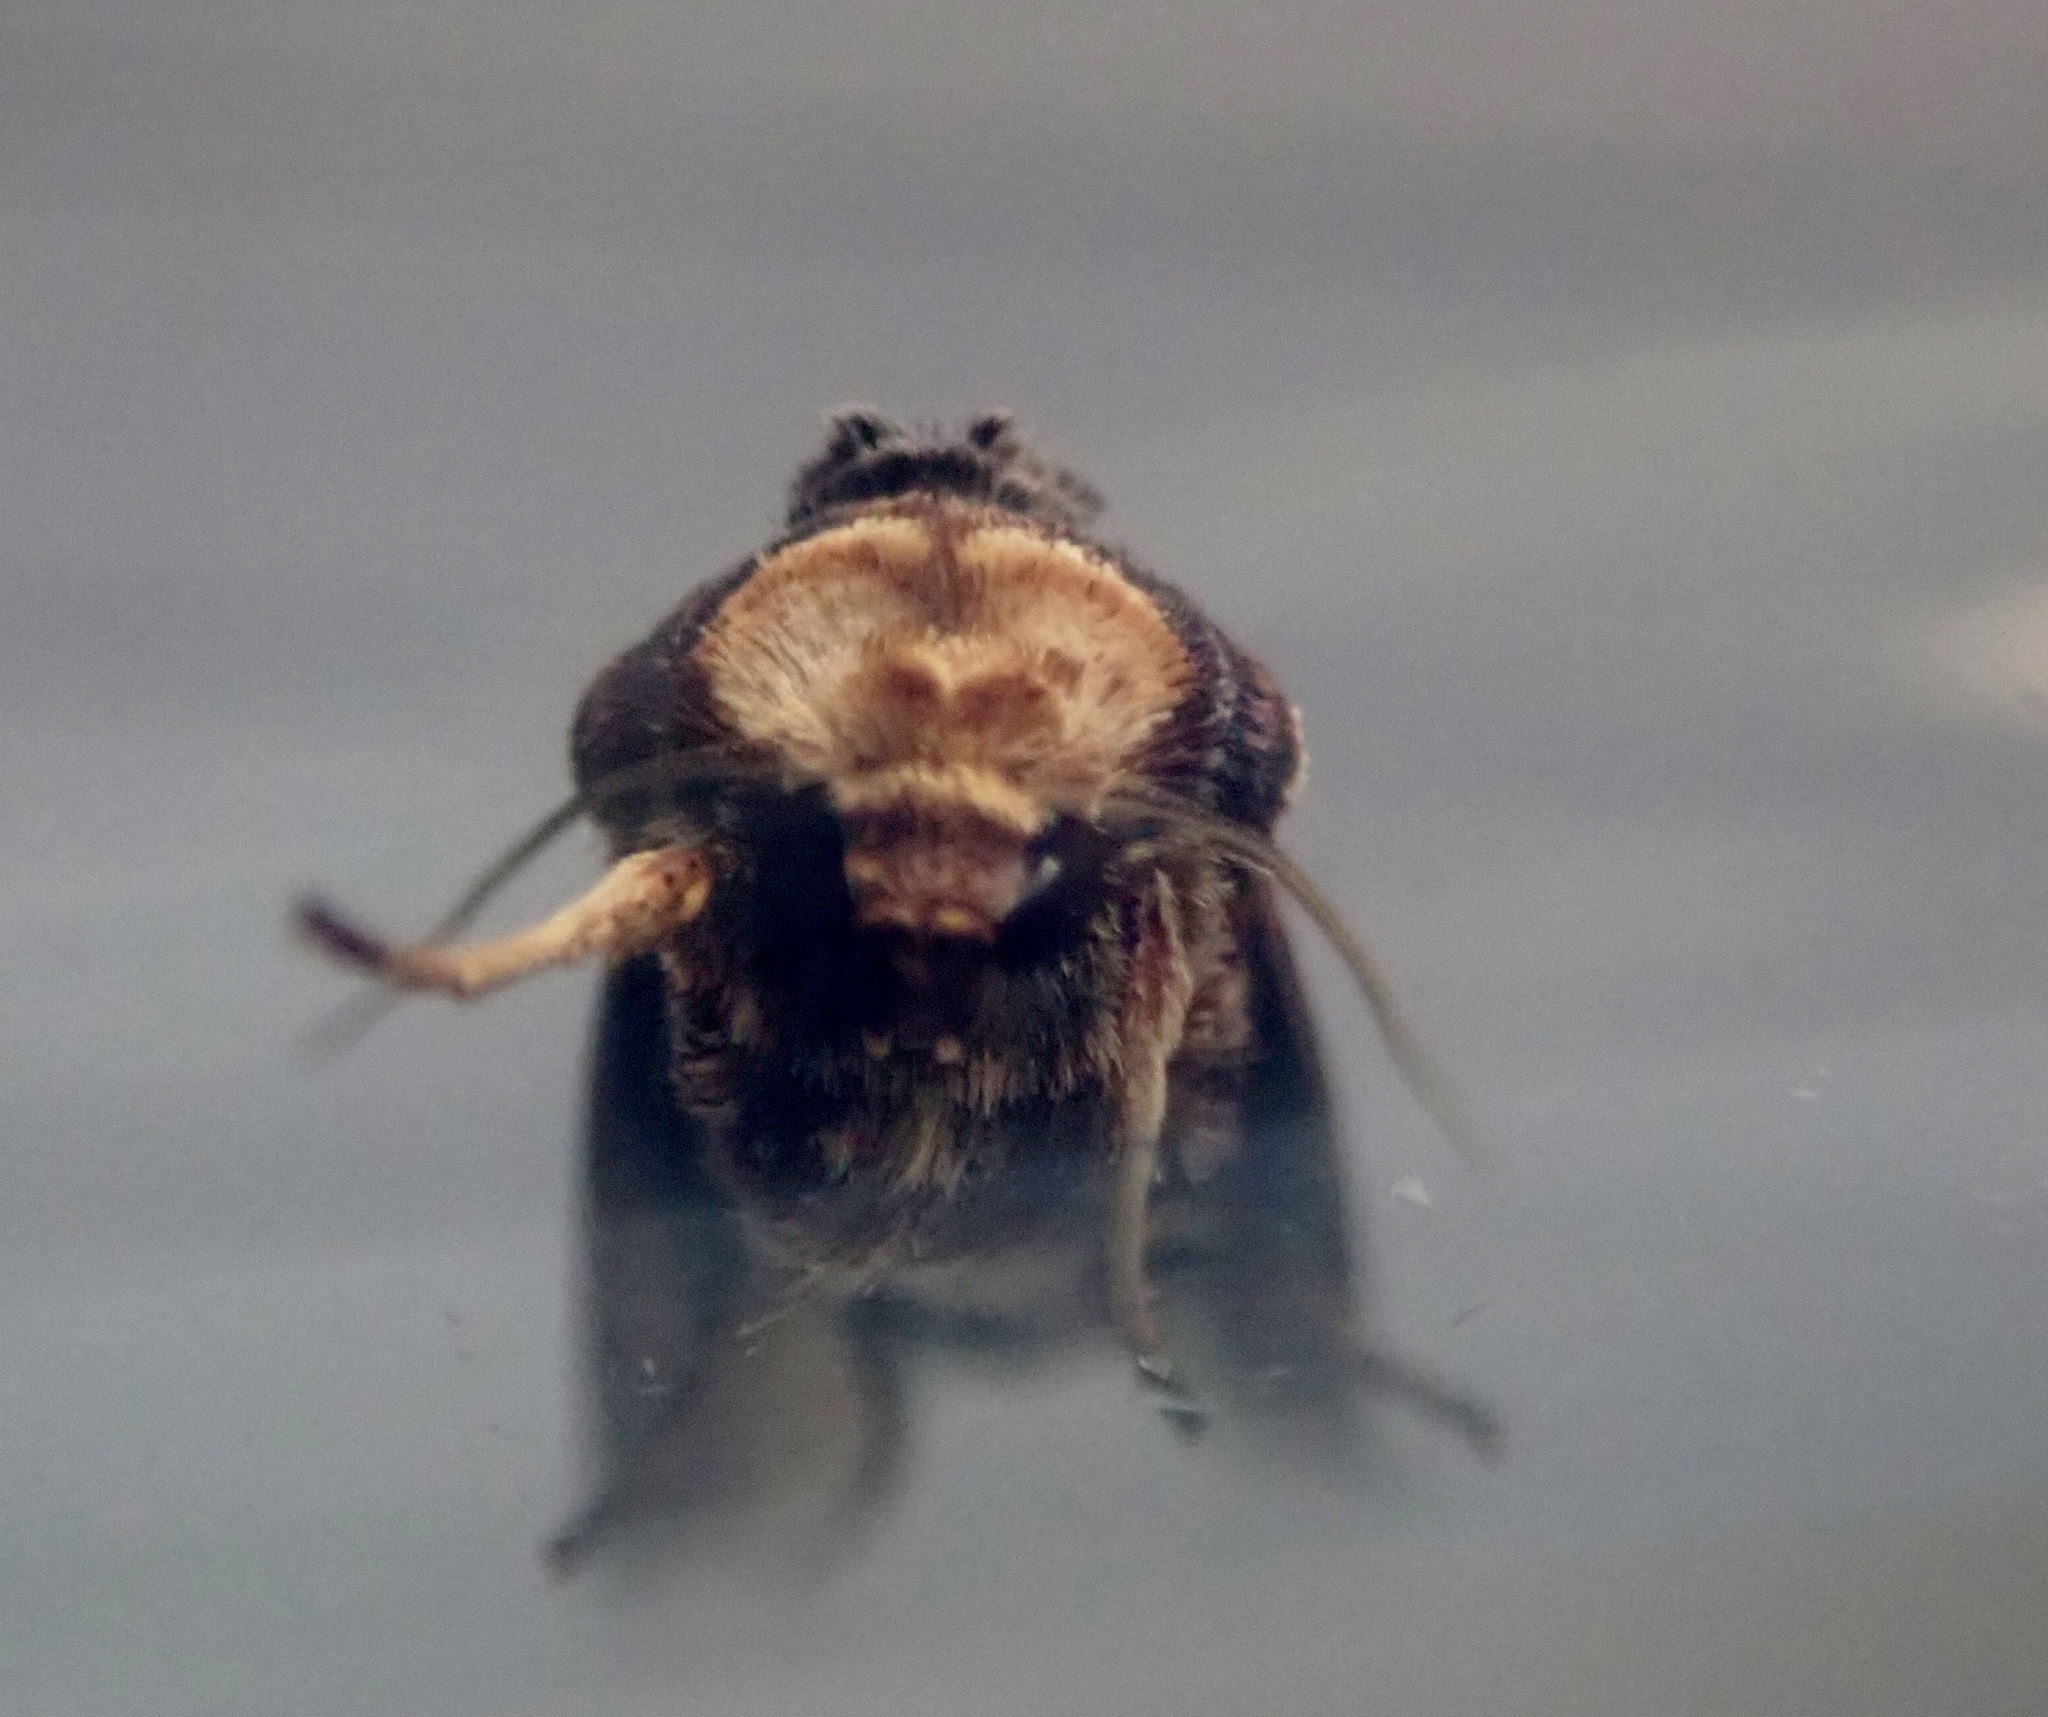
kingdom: Animalia
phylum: Arthropoda
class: Insecta
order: Lepidoptera
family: Noctuidae
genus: Axylia
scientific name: Axylia putris
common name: Flame
